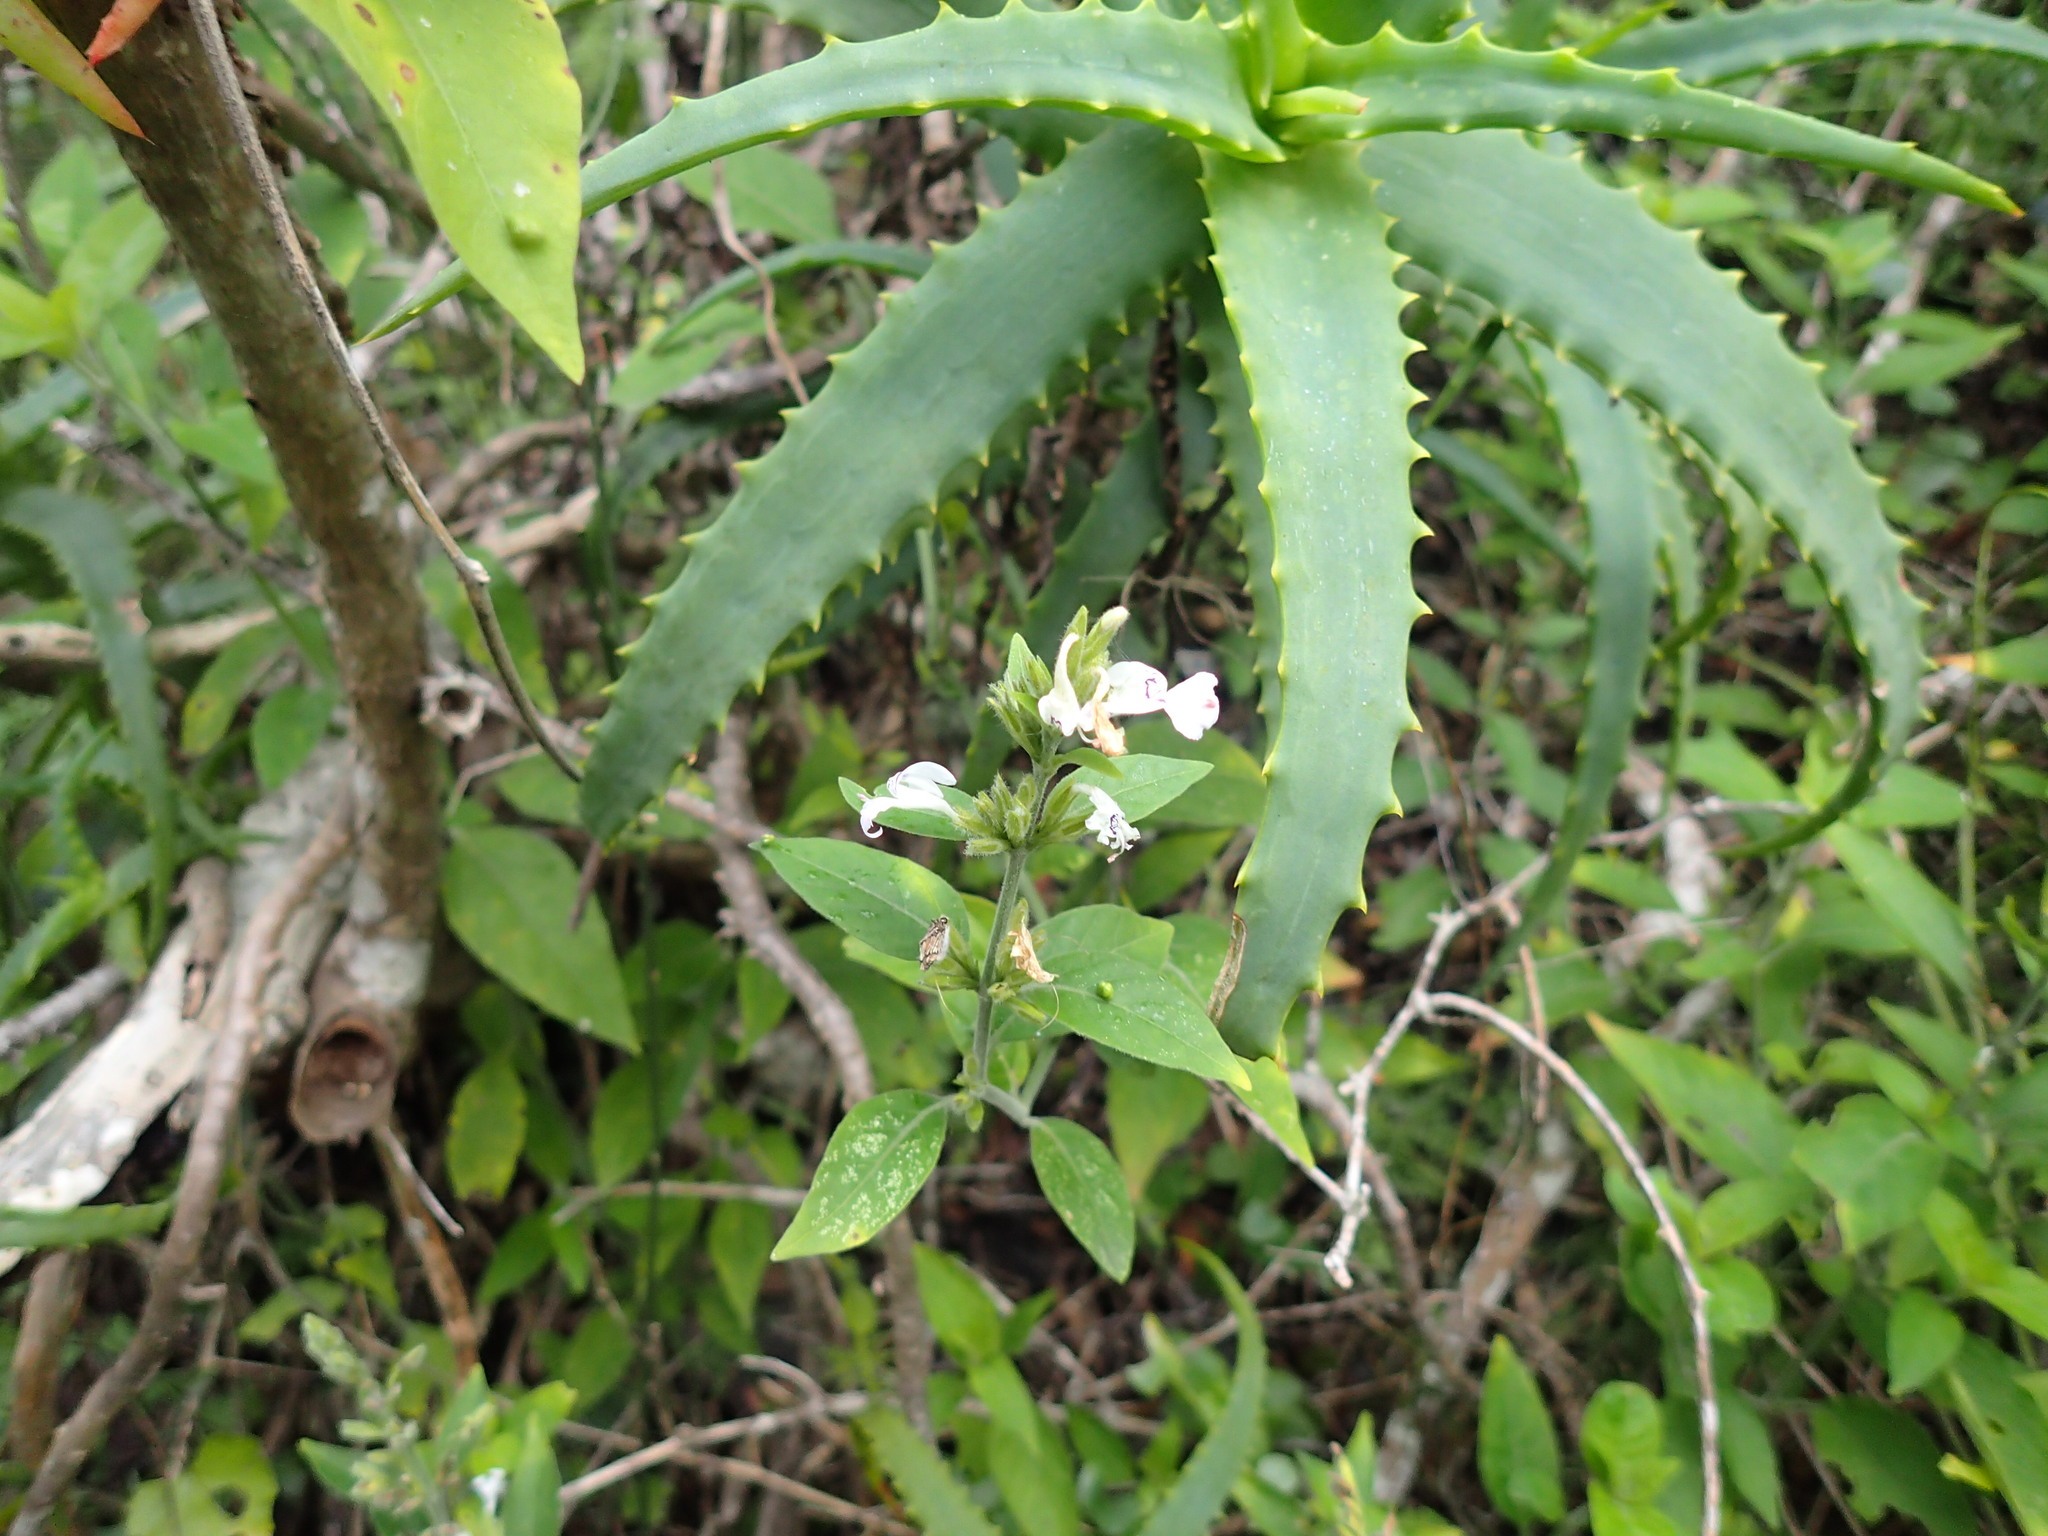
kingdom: Plantae
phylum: Tracheophyta
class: Magnoliopsida
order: Lamiales
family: Acanthaceae
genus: Hypoestes
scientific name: Hypoestes forskaolii
